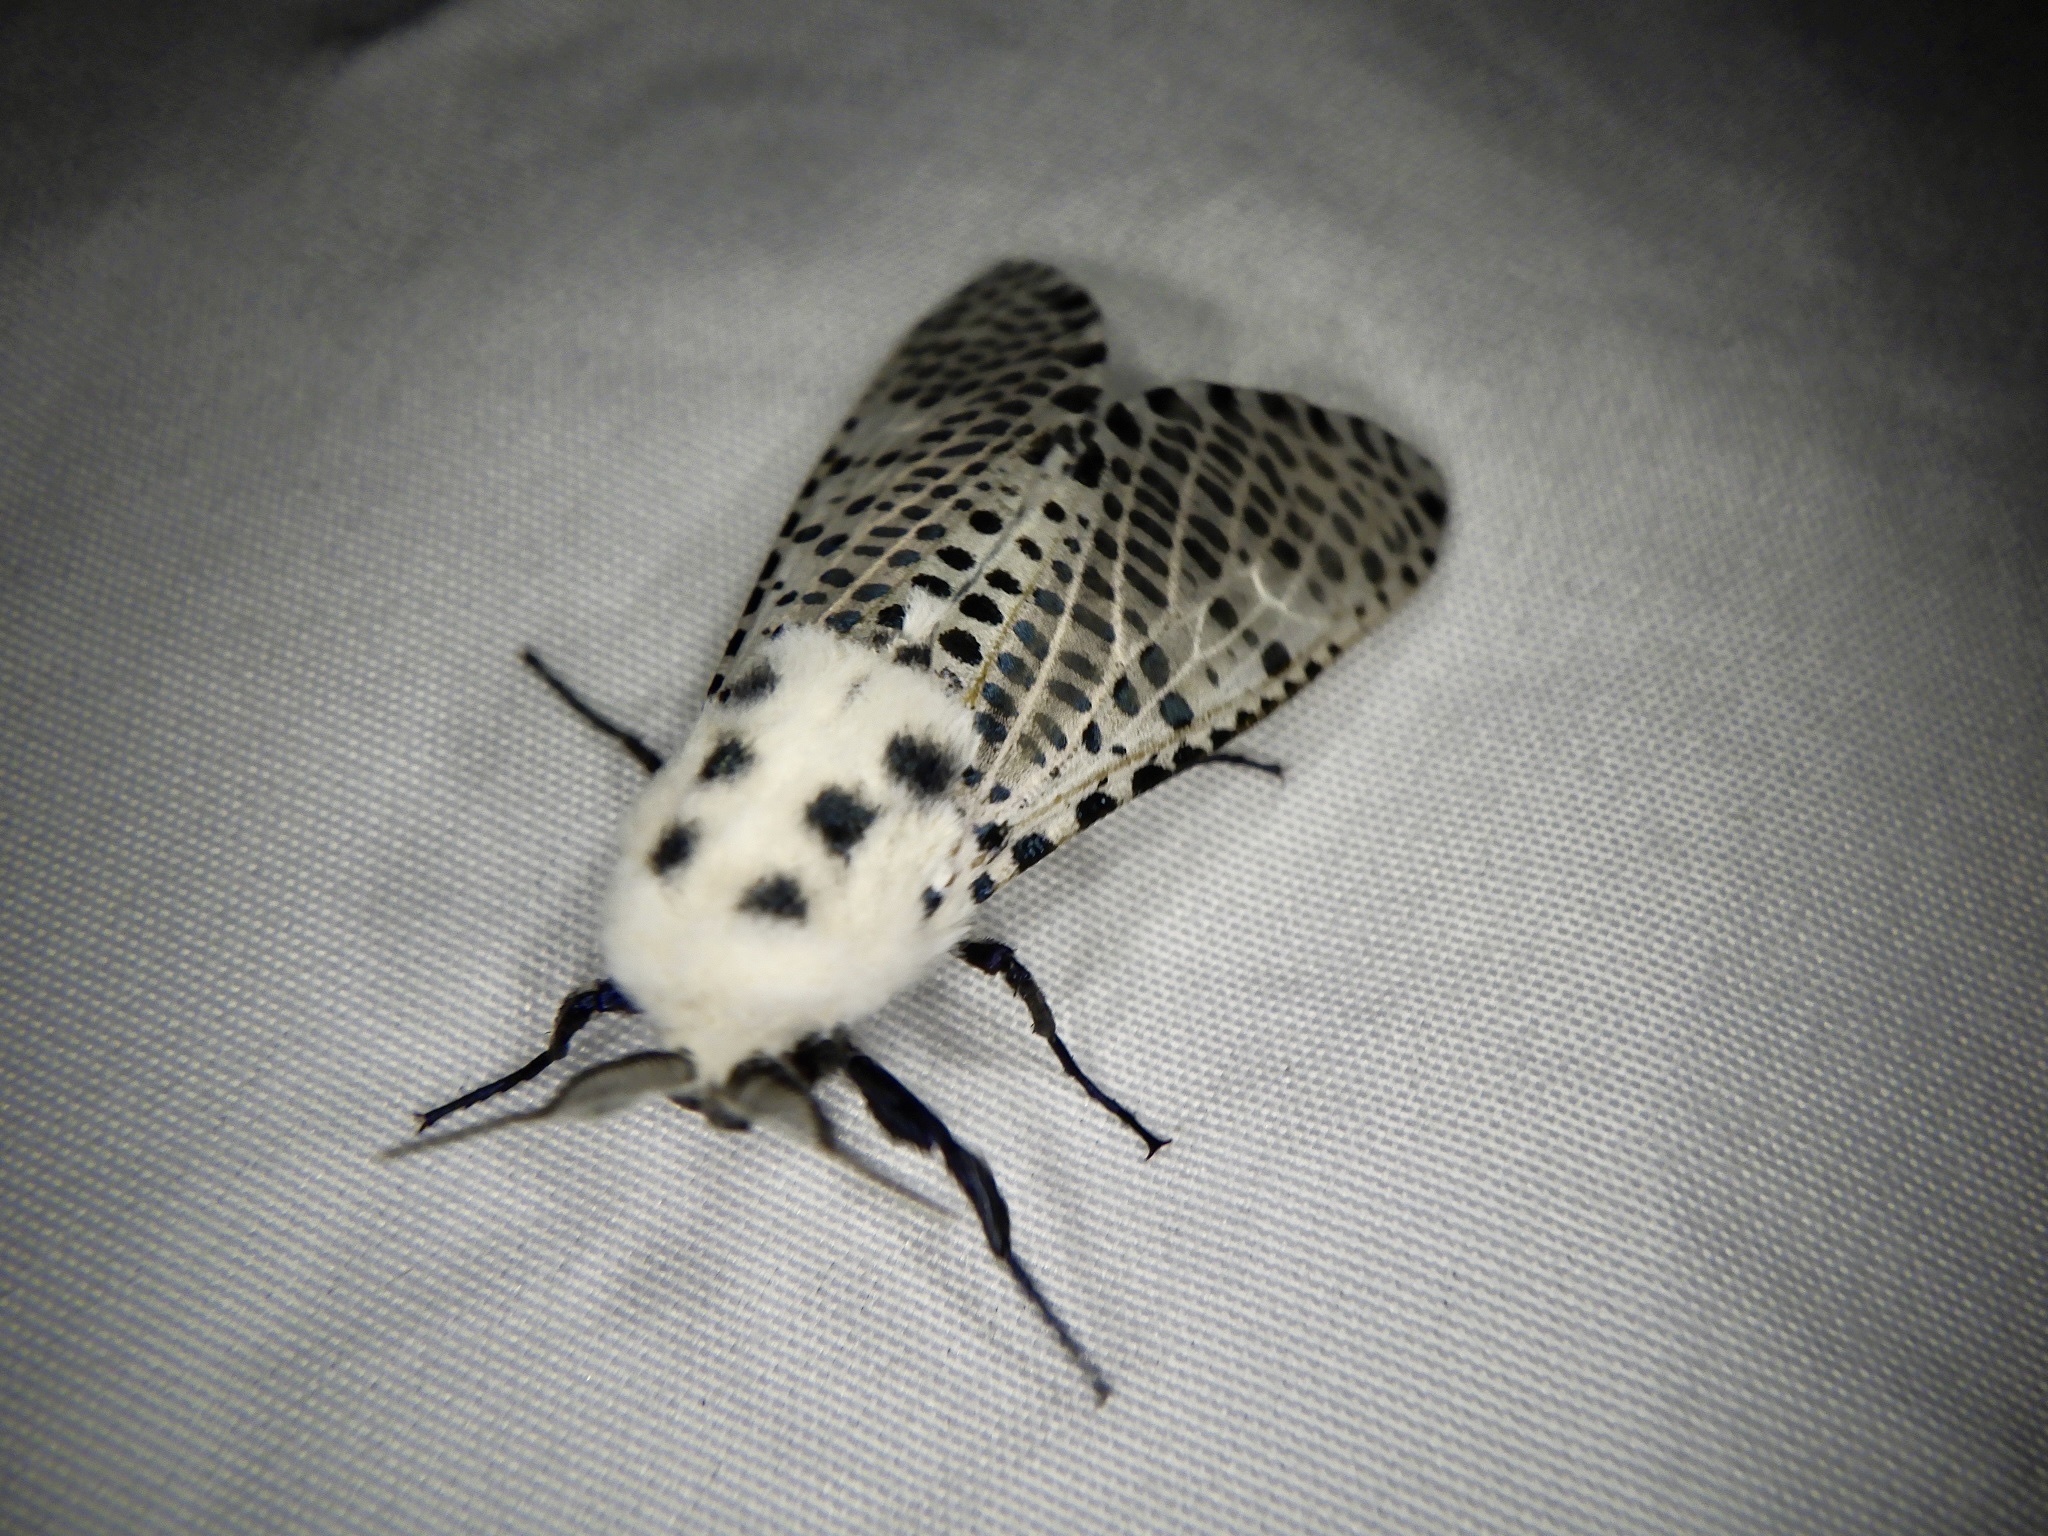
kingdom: Animalia
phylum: Arthropoda
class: Insecta
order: Lepidoptera
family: Cossidae
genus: Zeuzera
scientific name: Zeuzera multistrigata
